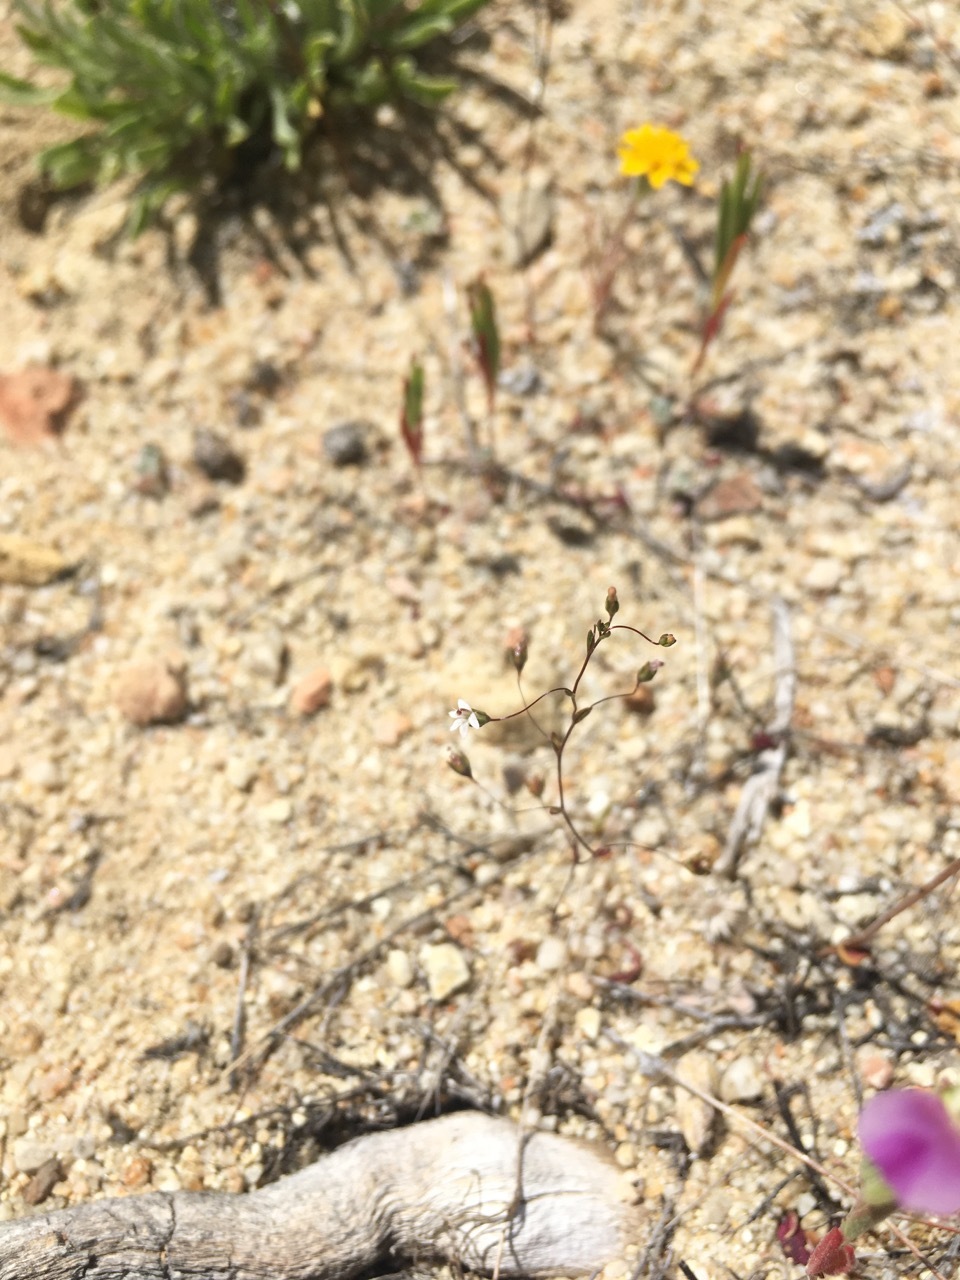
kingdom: Plantae
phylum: Tracheophyta
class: Magnoliopsida
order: Asterales
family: Campanulaceae
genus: Nemacladus
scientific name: Nemacladus secundiflorus
